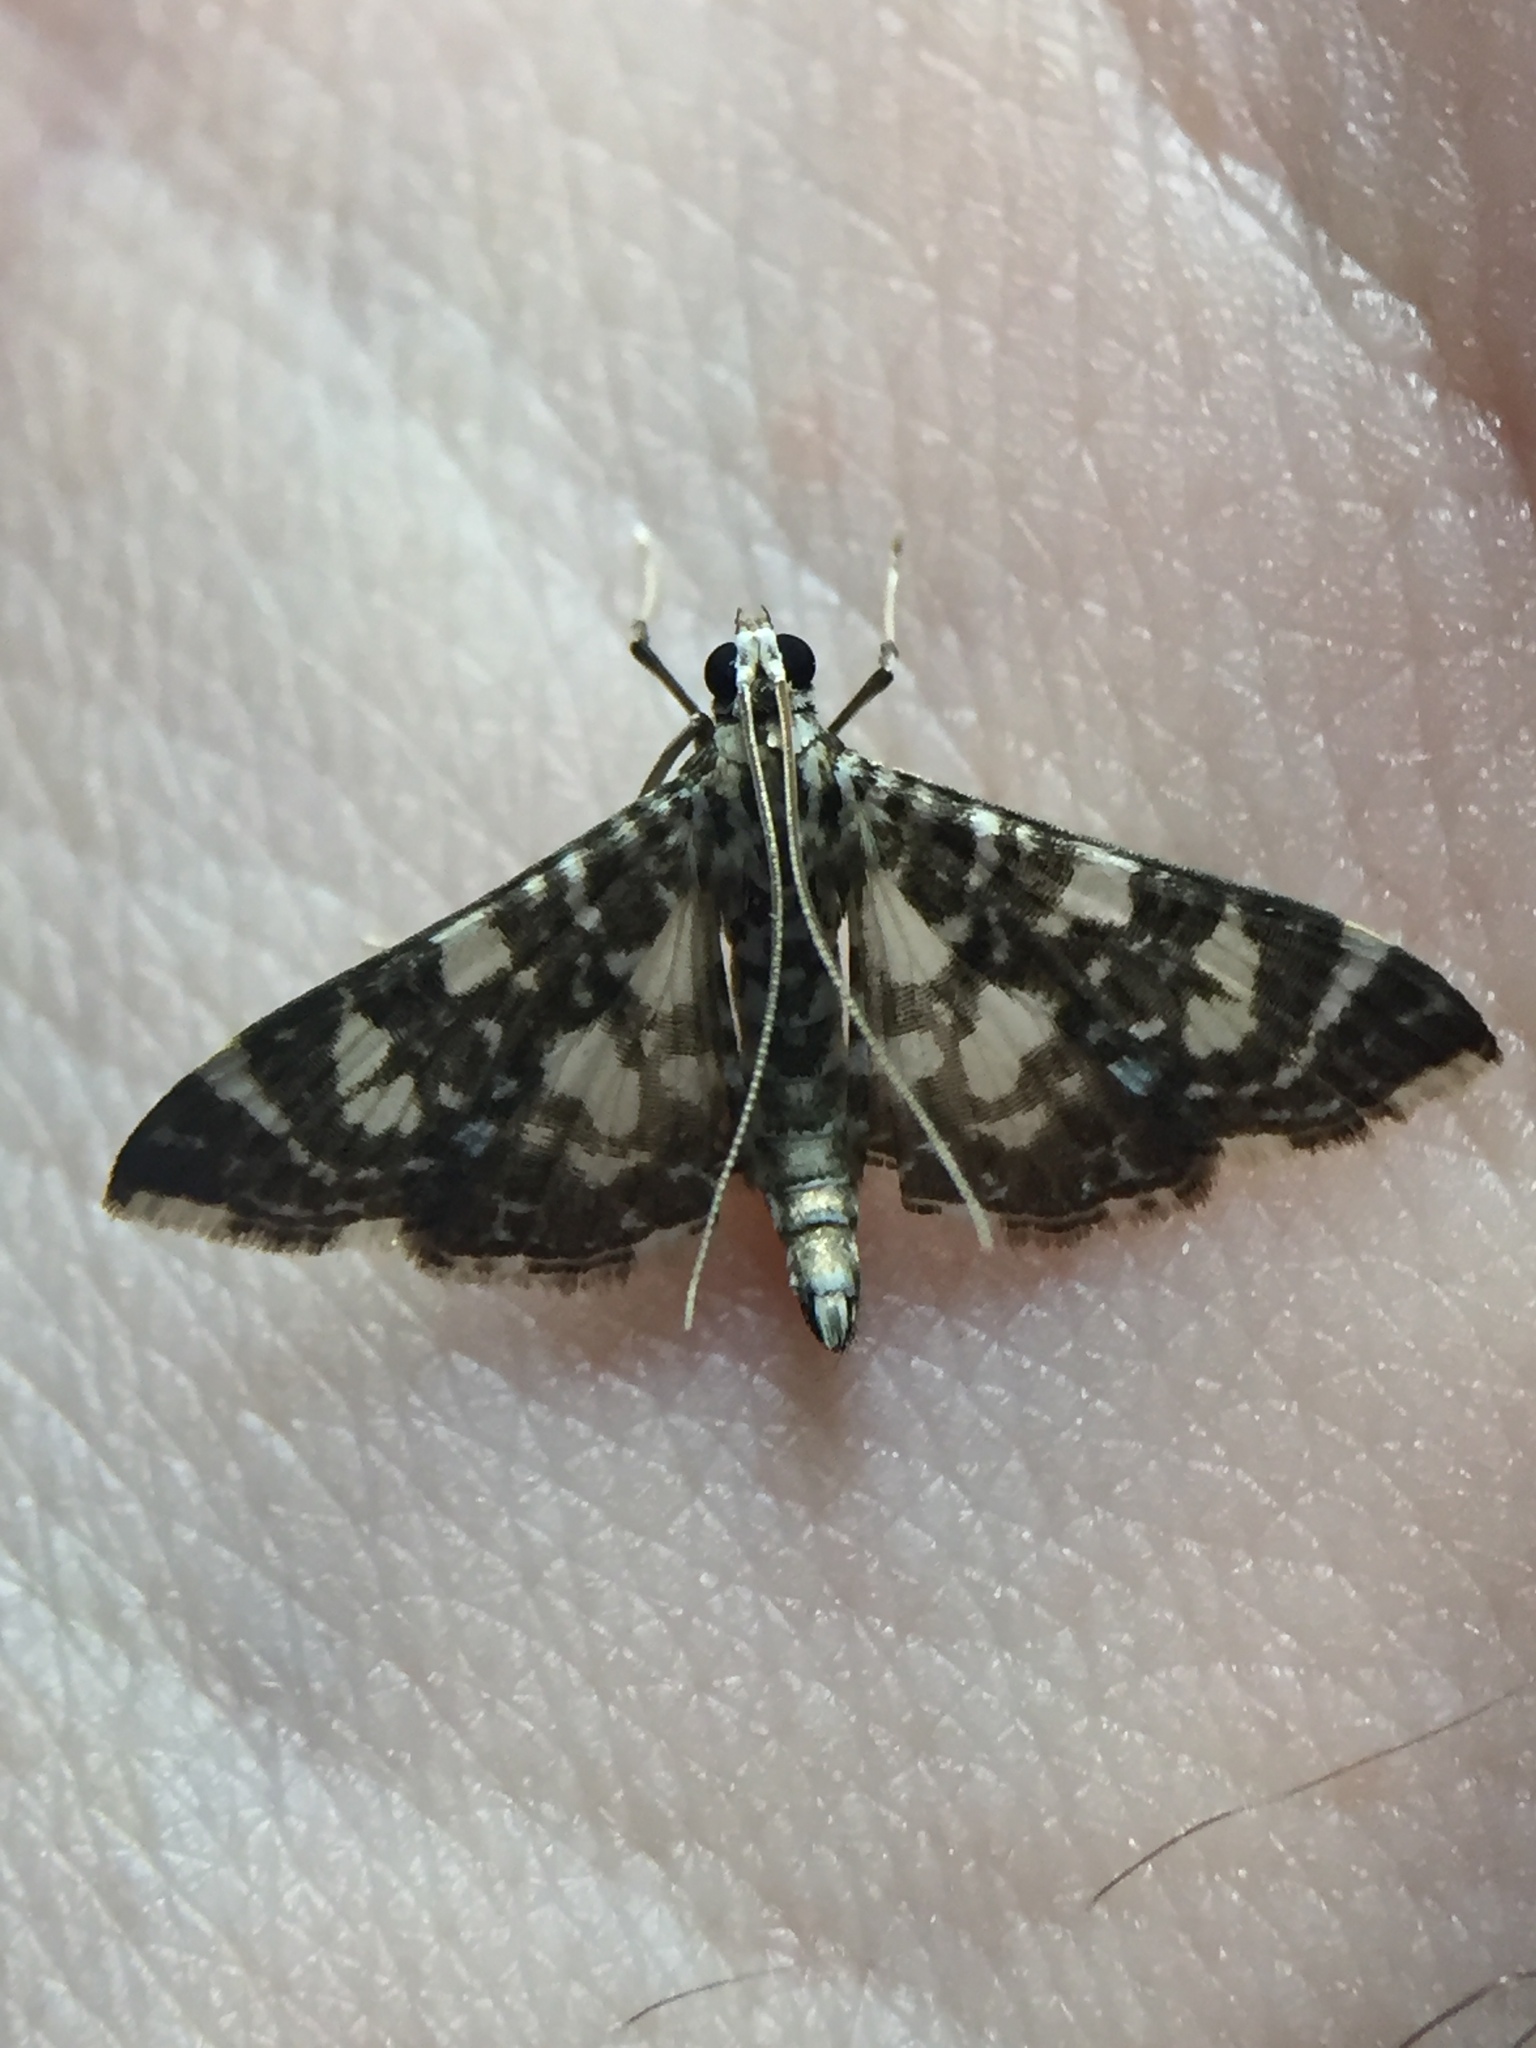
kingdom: Animalia
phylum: Arthropoda
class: Insecta
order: Lepidoptera
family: Crambidae
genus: Glyphodes
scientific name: Glyphodes onychinalis
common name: Swan plant moth
